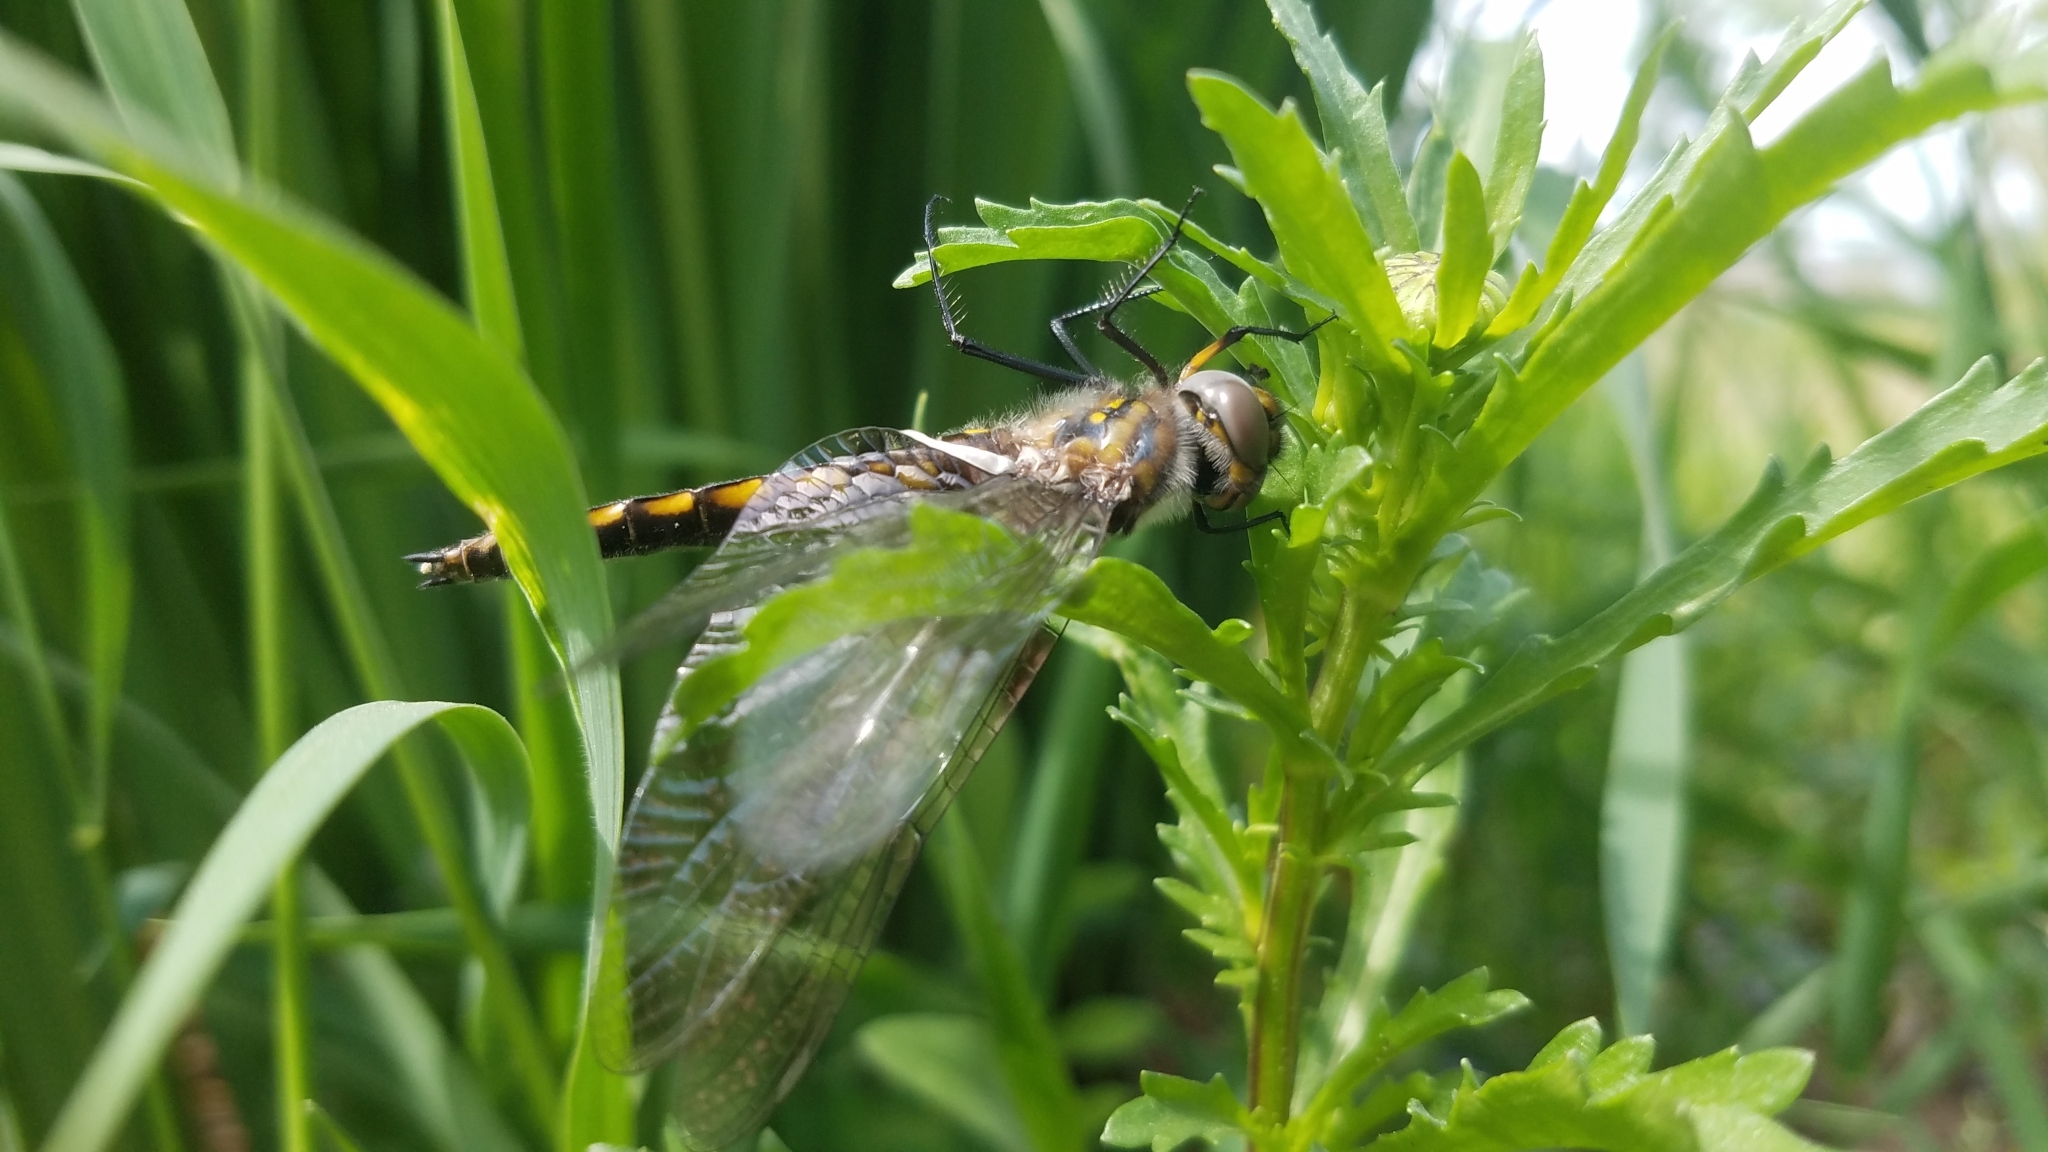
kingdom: Animalia
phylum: Arthropoda
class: Insecta
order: Odonata
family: Corduliidae
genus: Epitheca
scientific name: Epitheca cynosura
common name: Common baskettail
